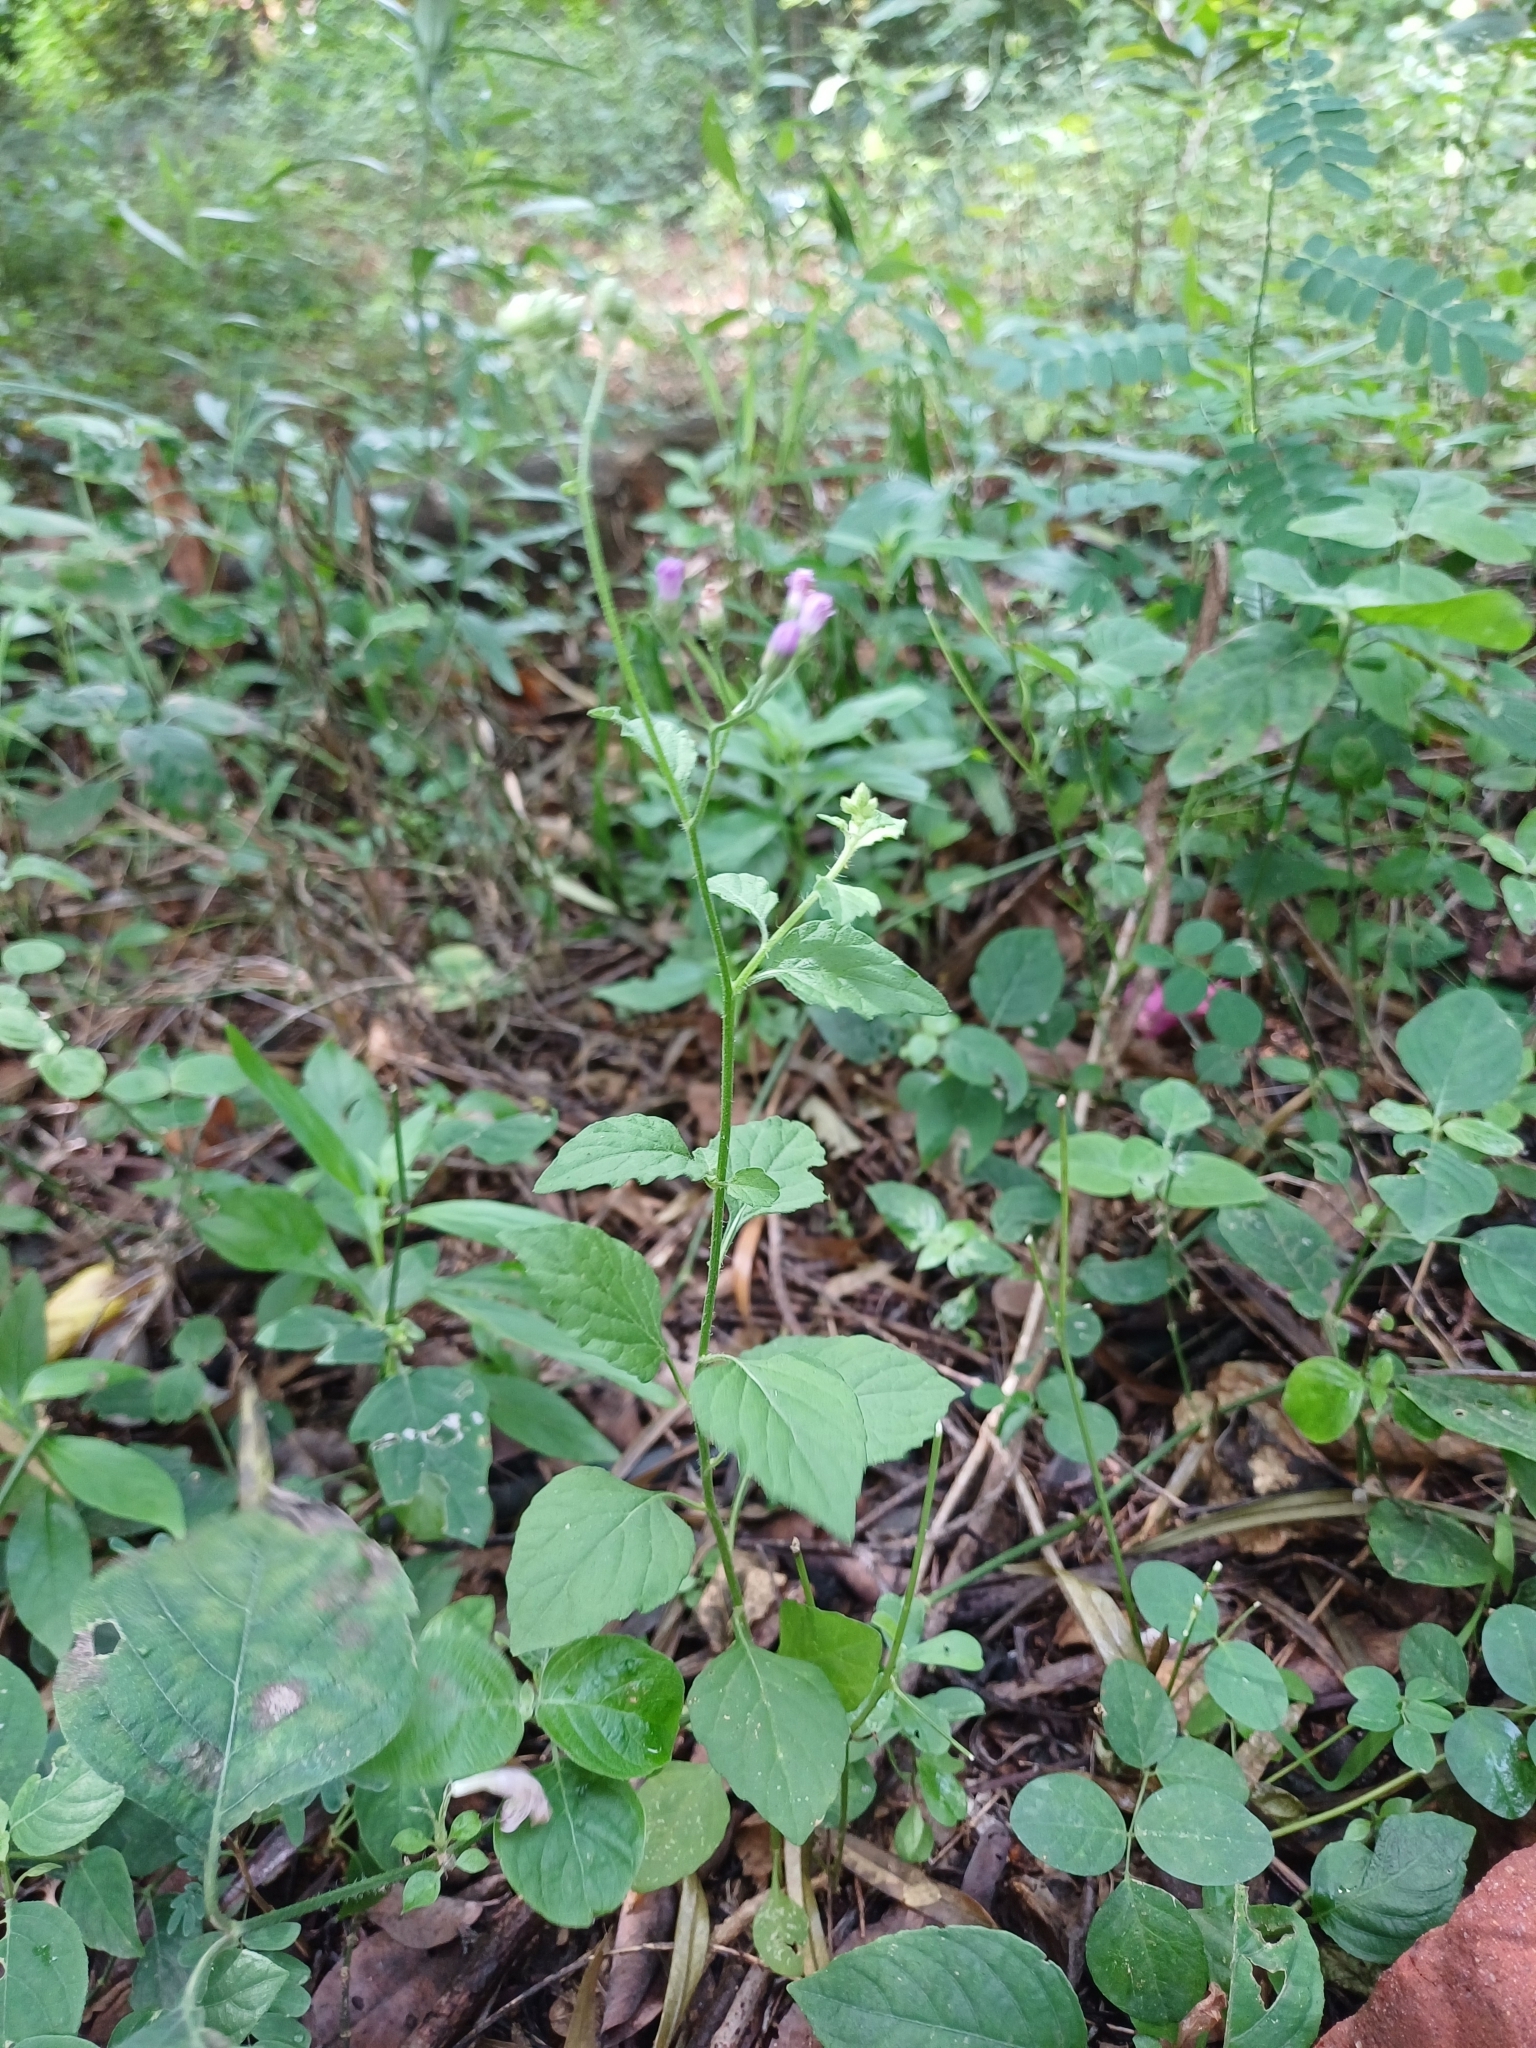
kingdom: Plantae
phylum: Tracheophyta
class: Magnoliopsida
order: Asterales
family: Asteraceae
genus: Cyanthillium
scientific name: Cyanthillium cinereum
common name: Little ironweed
